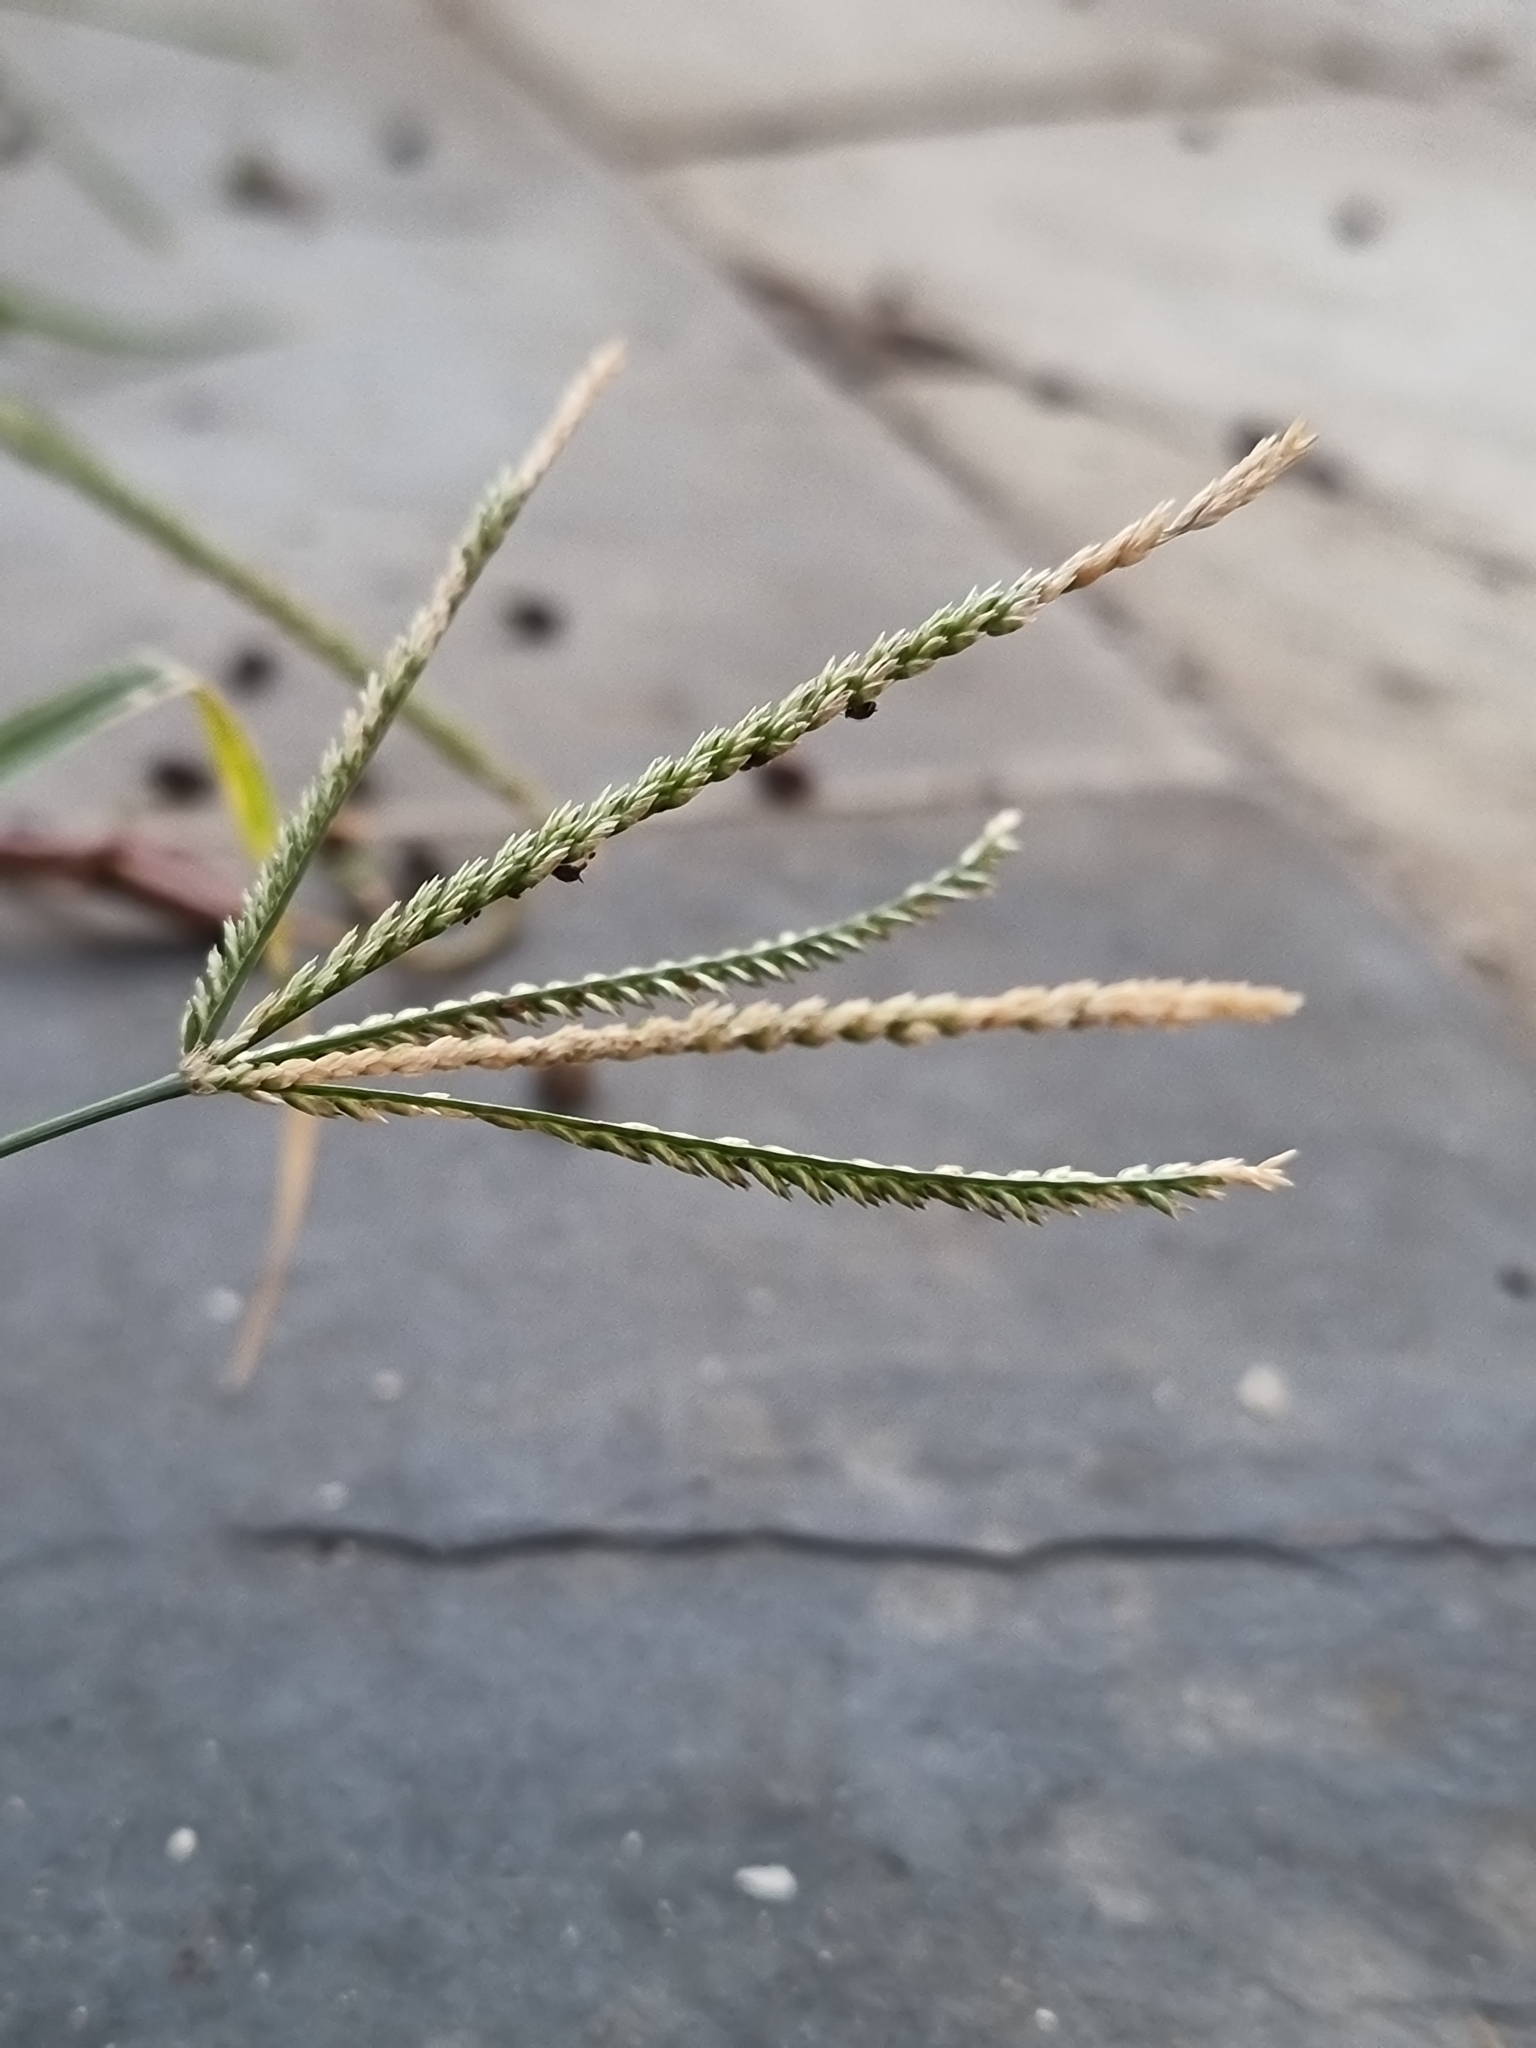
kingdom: Plantae
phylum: Tracheophyta
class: Liliopsida
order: Poales
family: Poaceae
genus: Eleusine
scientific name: Eleusine indica
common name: Yard-grass
